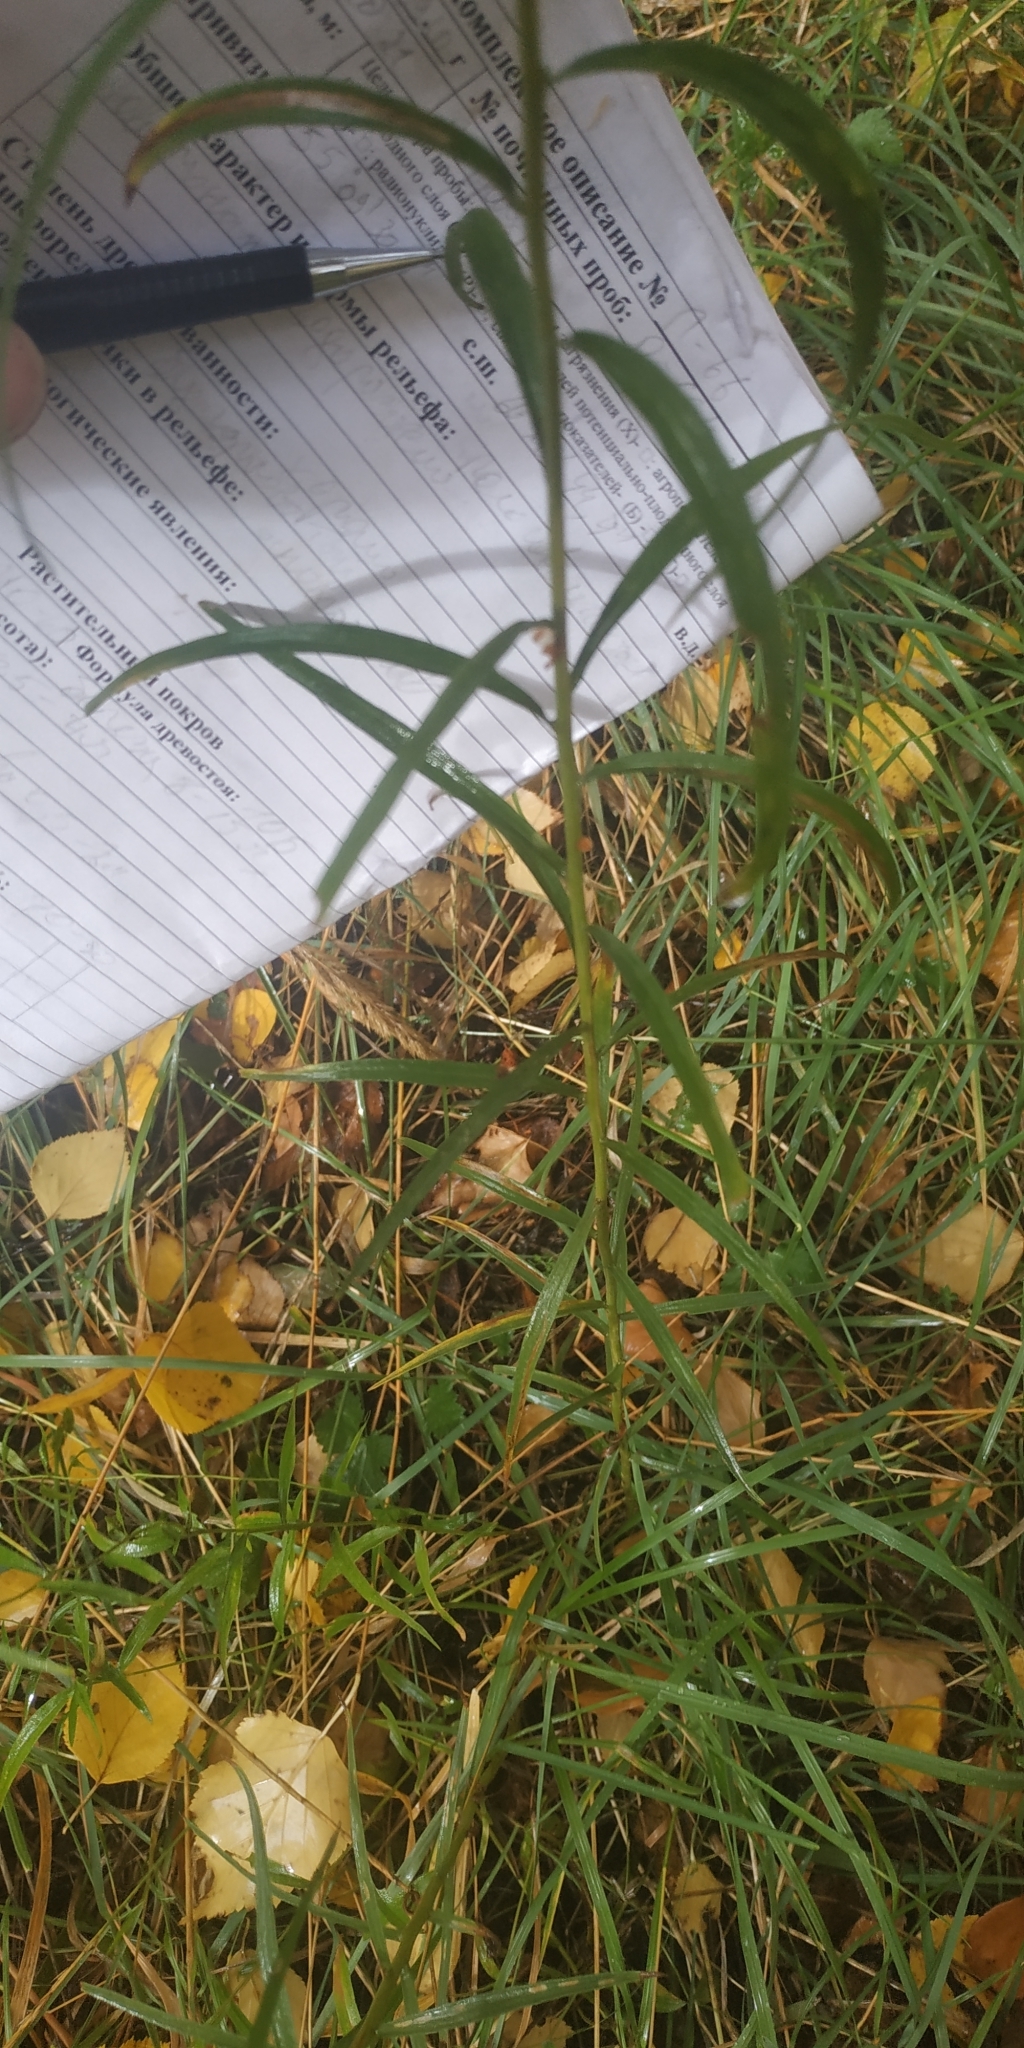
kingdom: Plantae
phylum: Tracheophyta
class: Magnoliopsida
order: Asterales
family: Asteraceae
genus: Hieracium
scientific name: Hieracium umbellatum
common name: Northern hawkweed
